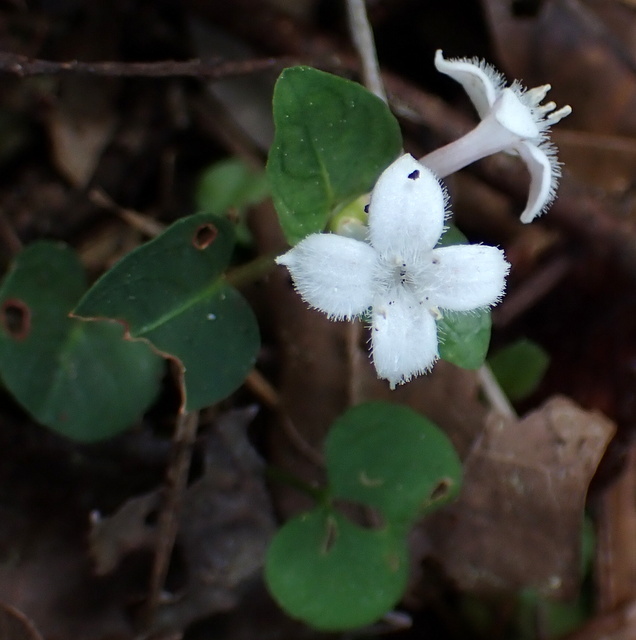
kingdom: Plantae
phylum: Tracheophyta
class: Magnoliopsida
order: Gentianales
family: Rubiaceae
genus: Mitchella
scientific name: Mitchella repens
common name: Partridge-berry
